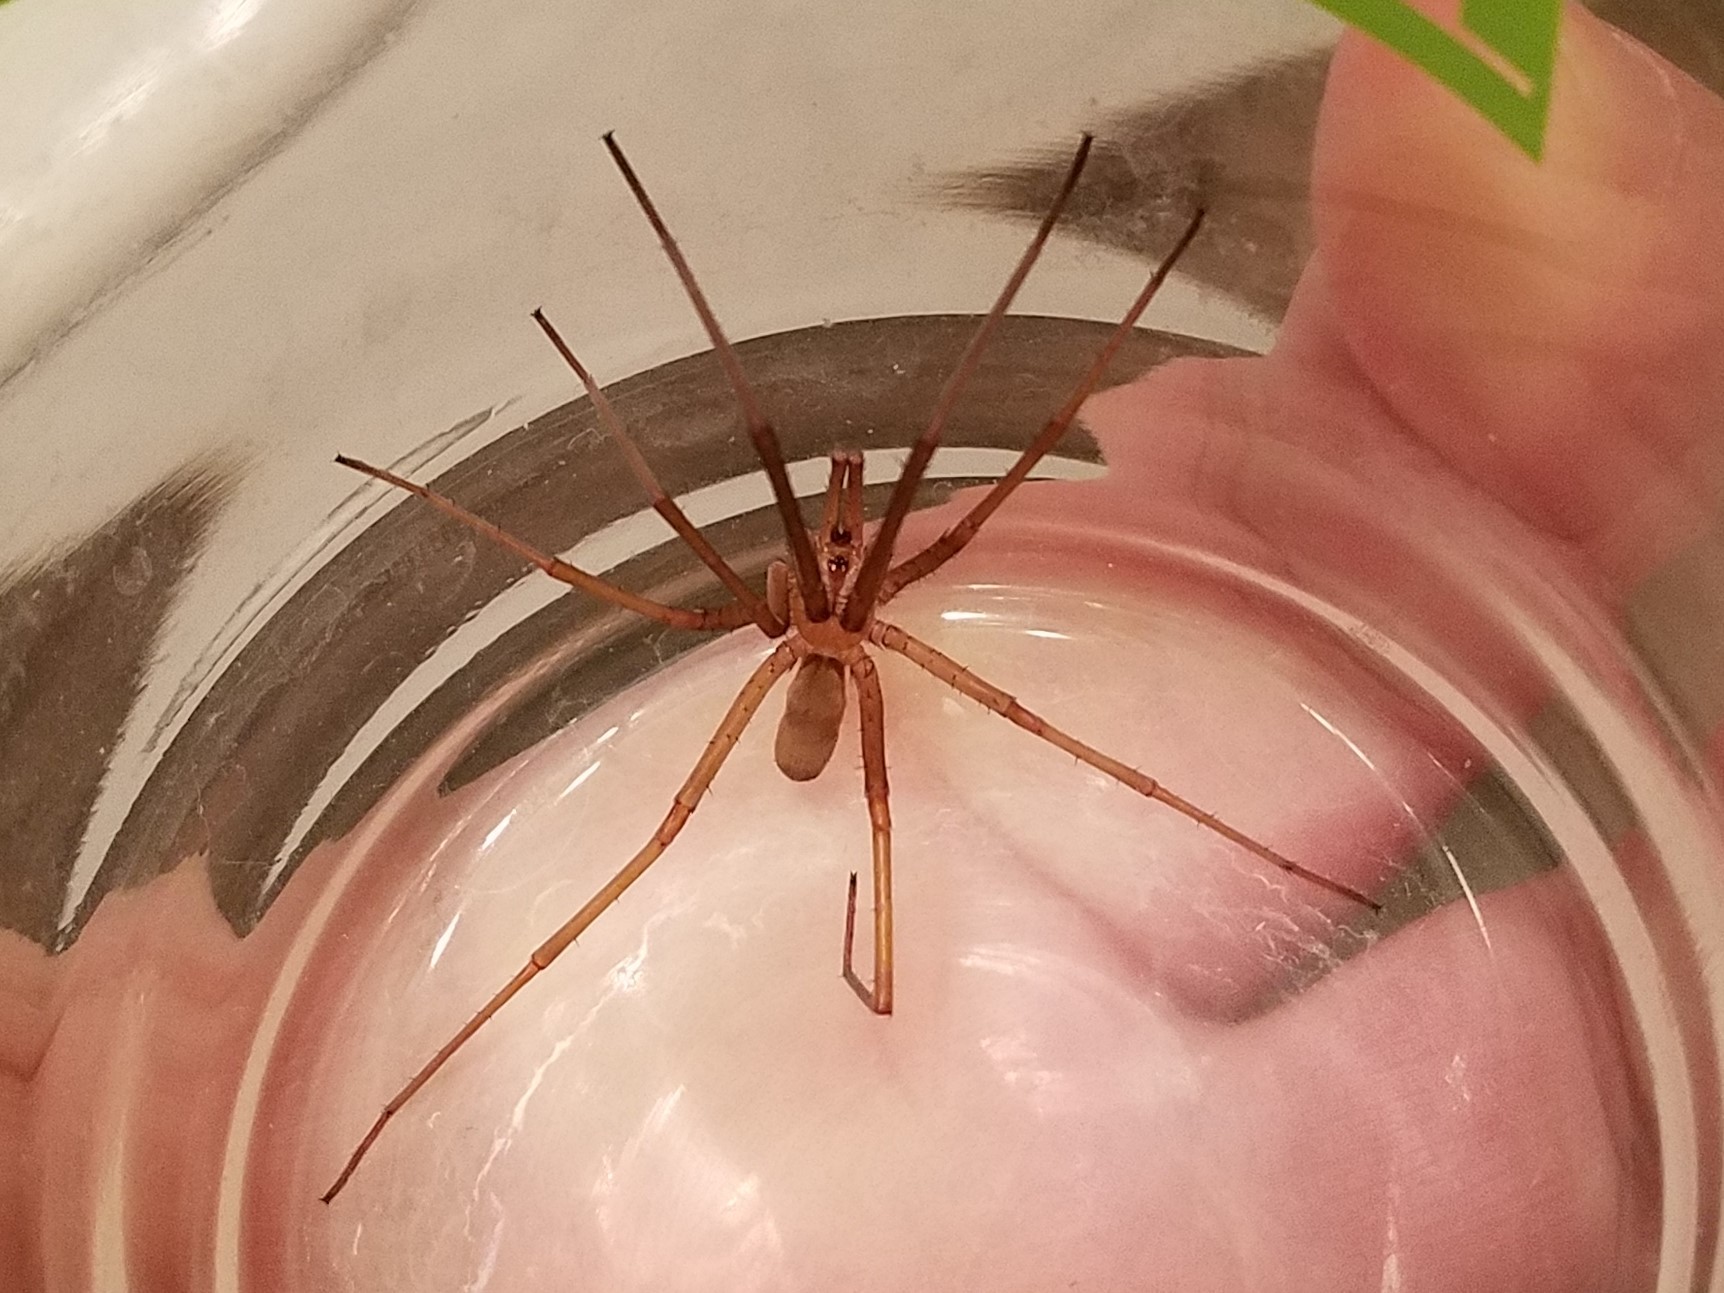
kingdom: Animalia
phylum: Arthropoda
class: Arachnida
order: Araneae
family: Filistatidae
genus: Kukulcania
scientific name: Kukulcania hibernalis
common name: Crevice weaver
